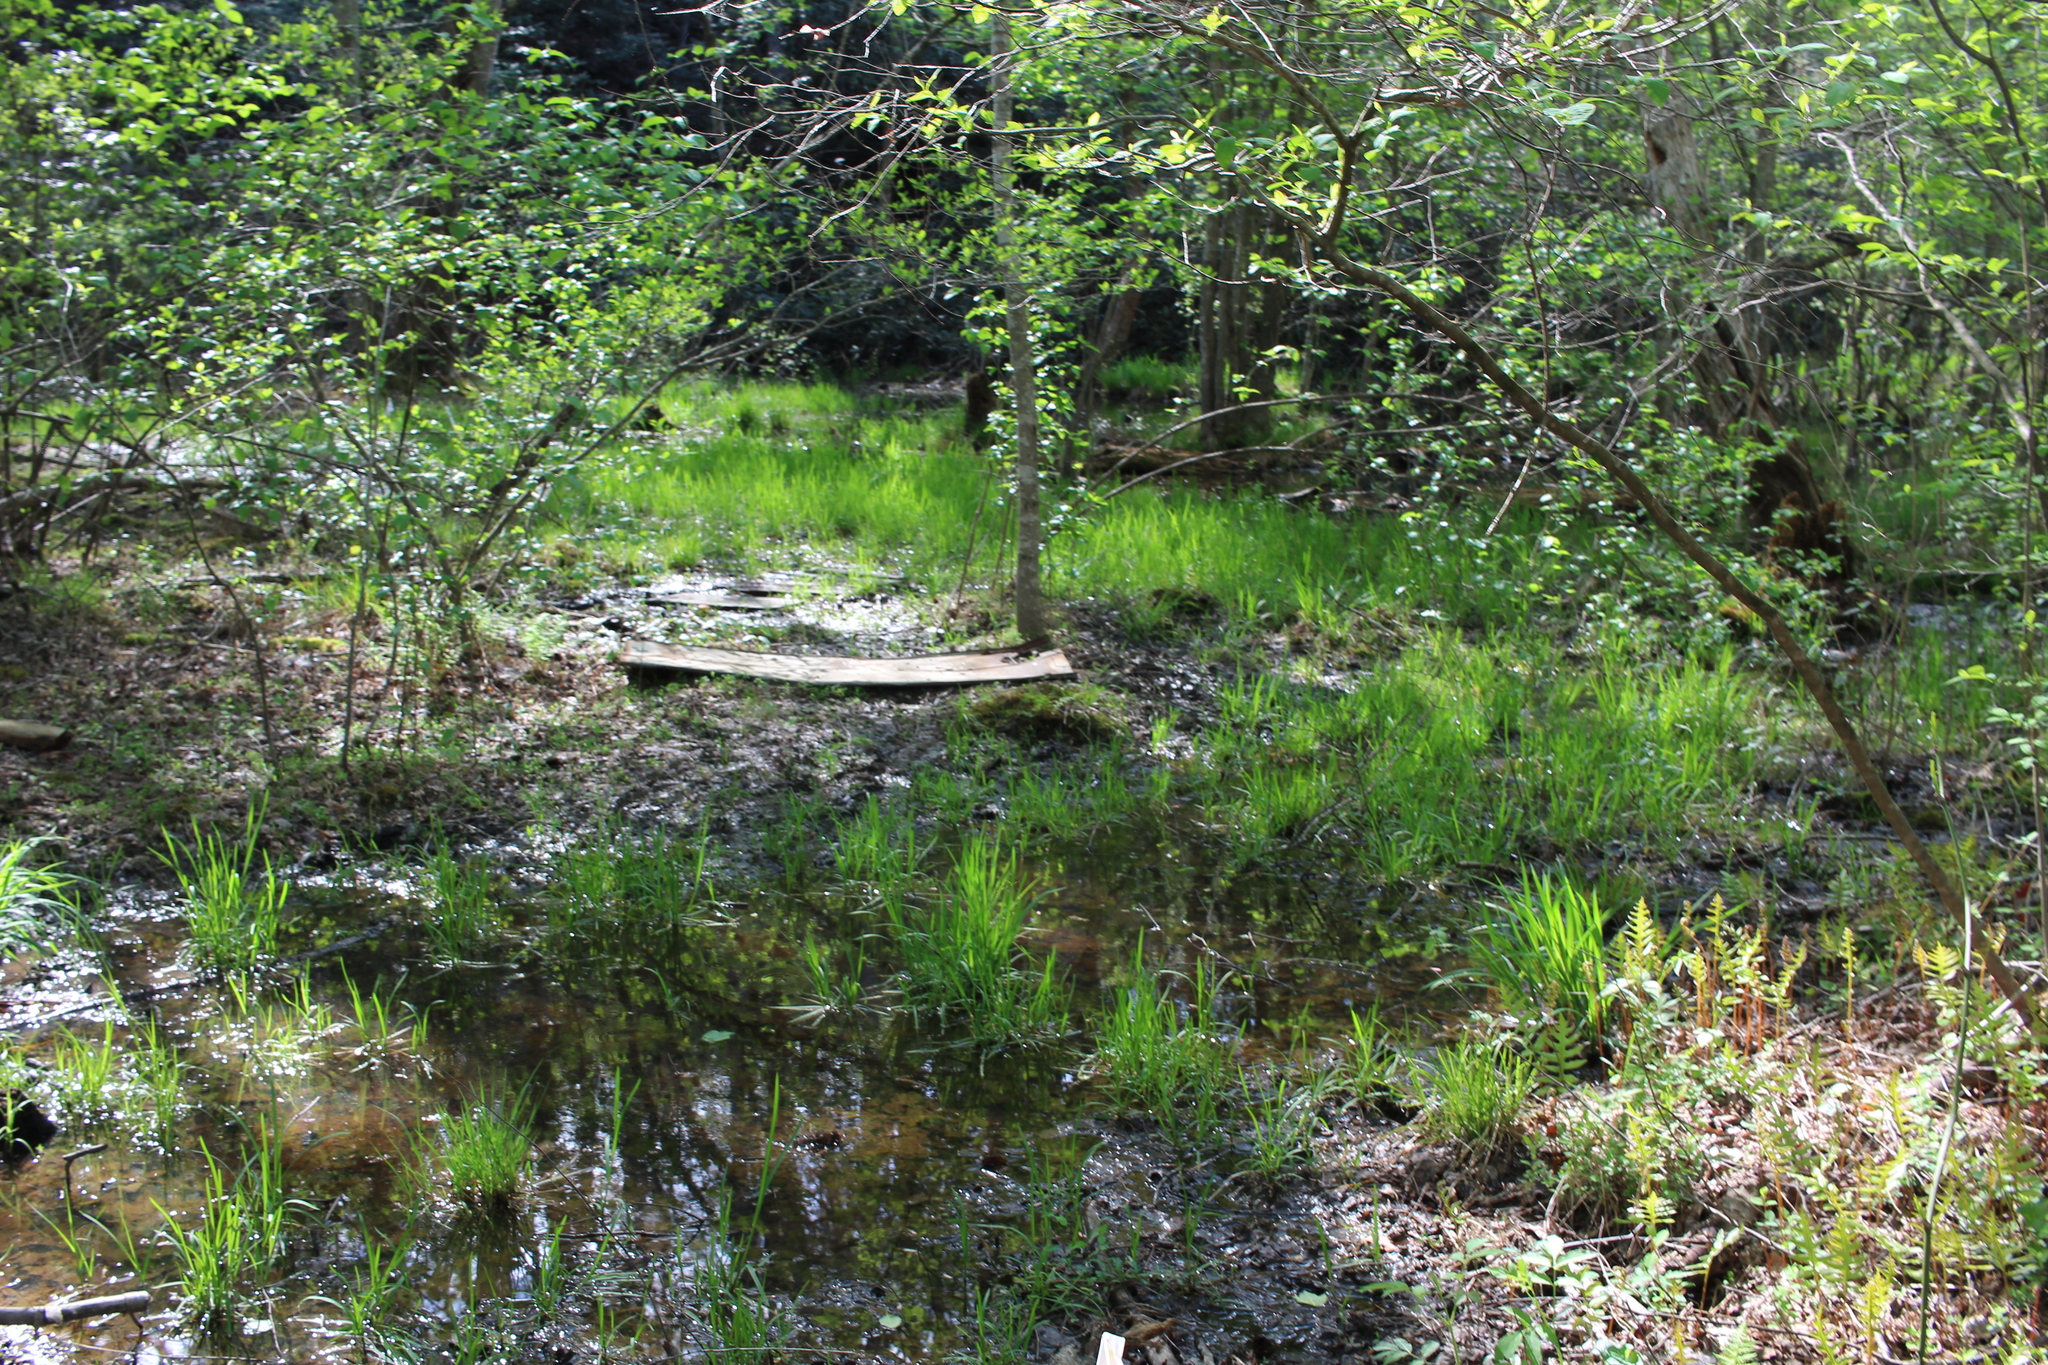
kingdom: Animalia
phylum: Chordata
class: Amphibia
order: Caudata
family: Plethodontidae
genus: Pseudotriton
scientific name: Pseudotriton montanus
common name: Mud salamander
